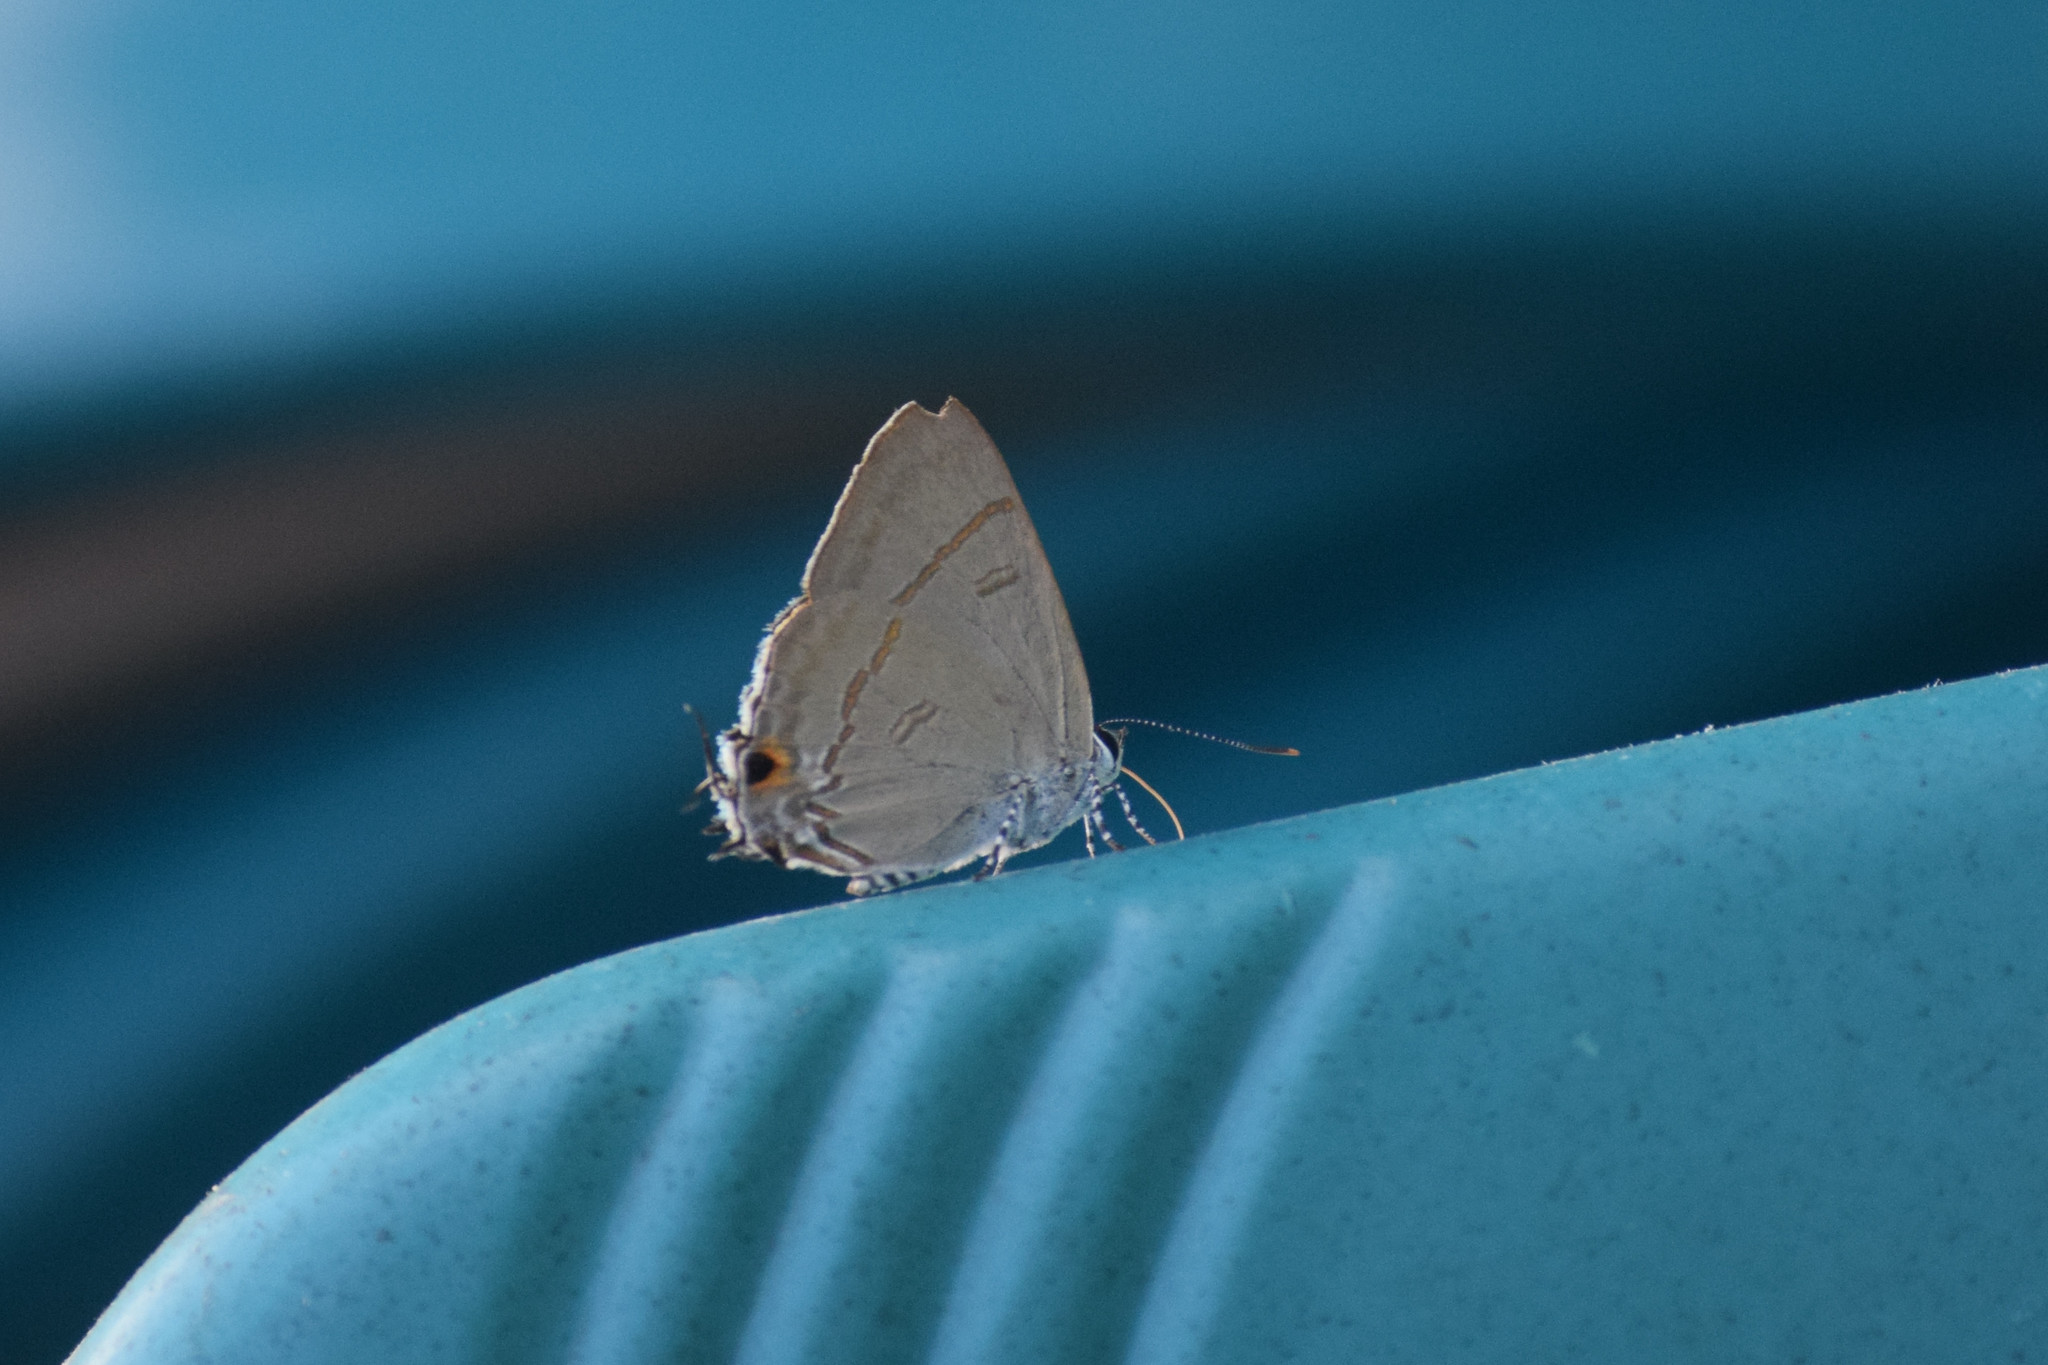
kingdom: Animalia
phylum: Arthropoda
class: Insecta
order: Lepidoptera
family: Lycaenidae
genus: Hypolycaena
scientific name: Hypolycaena erylus
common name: Common tit
